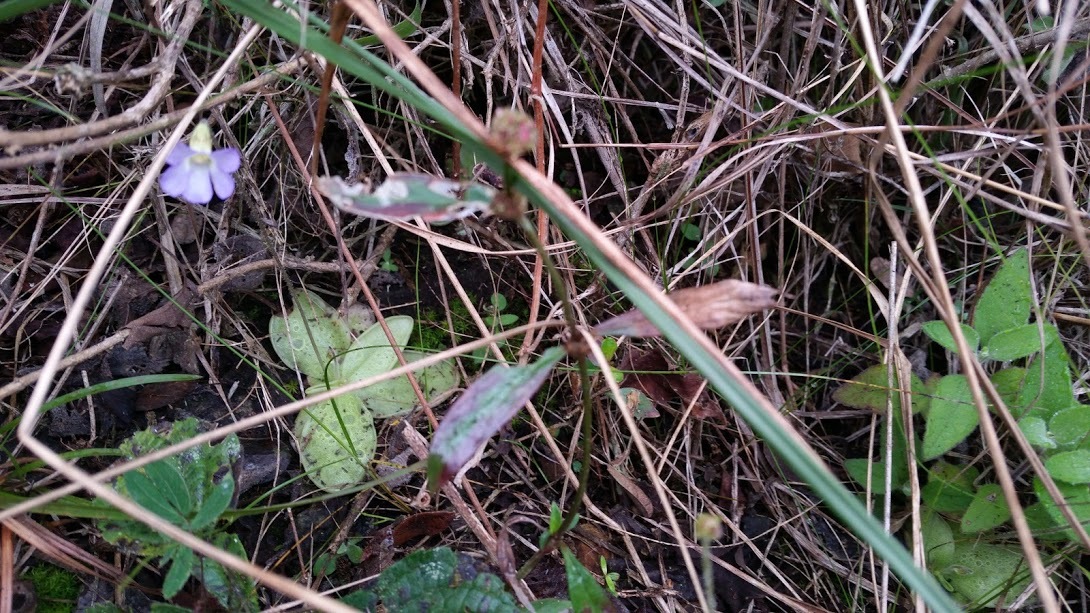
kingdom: Plantae
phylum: Tracheophyta
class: Magnoliopsida
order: Lamiales
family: Lentibulariaceae
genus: Pinguicula
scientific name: Pinguicula lilacina
